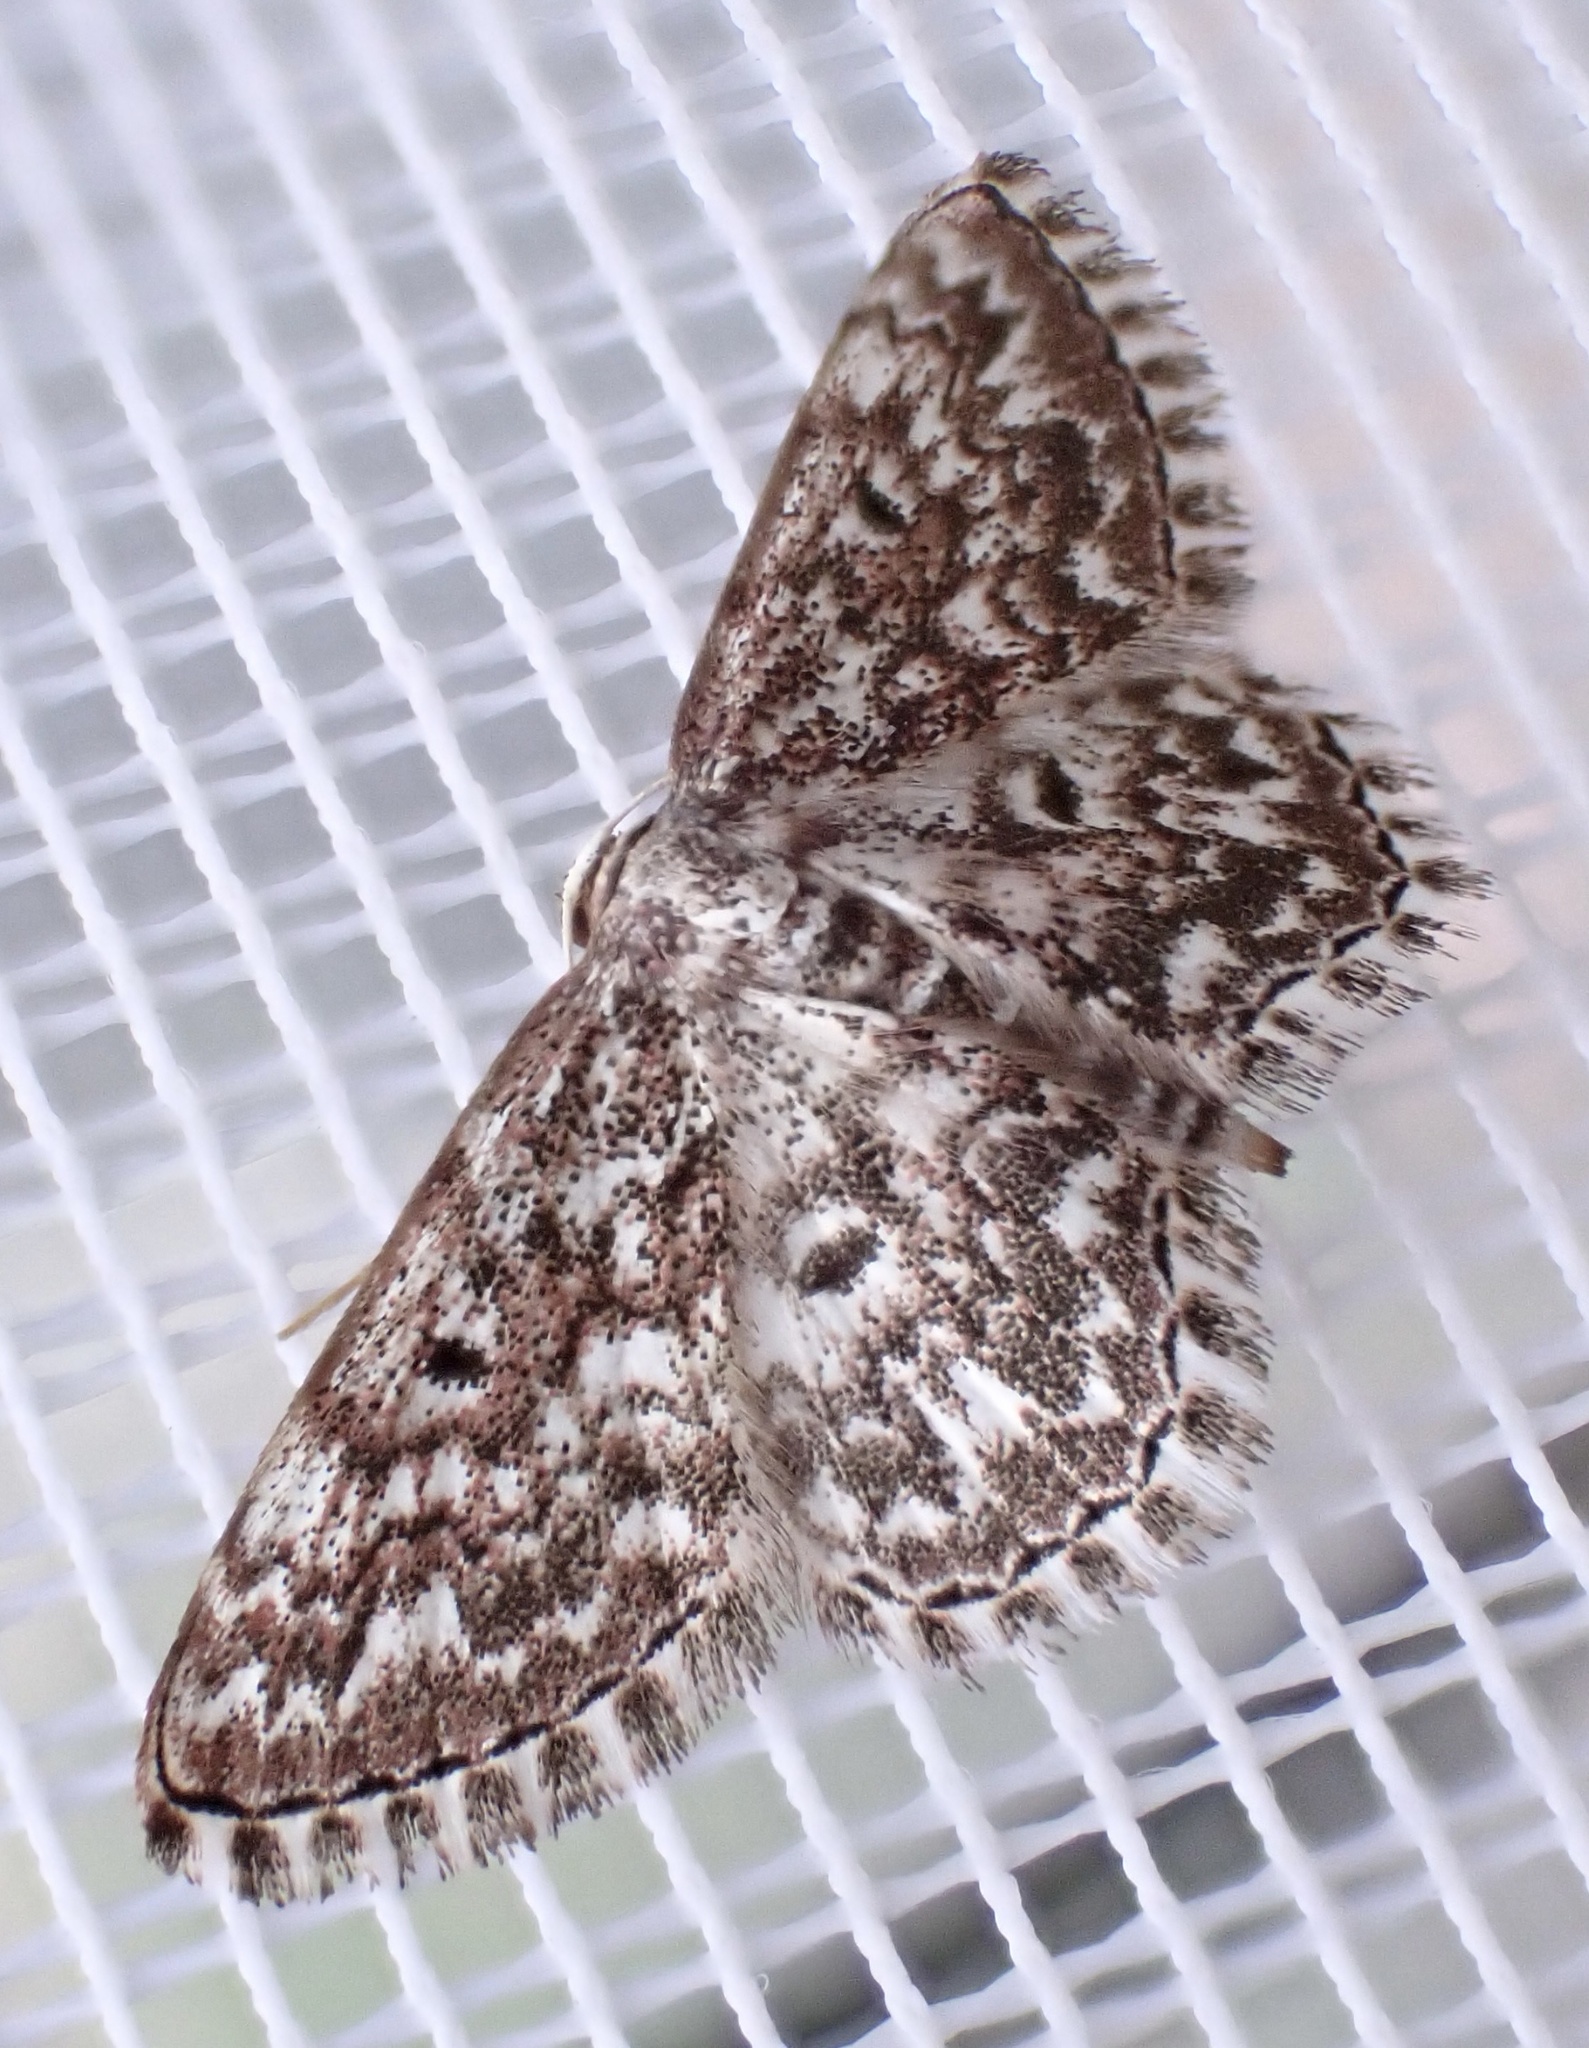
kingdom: Animalia
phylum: Arthropoda
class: Insecta
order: Lepidoptera
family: Geometridae
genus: Scopula
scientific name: Scopula inscriptata
